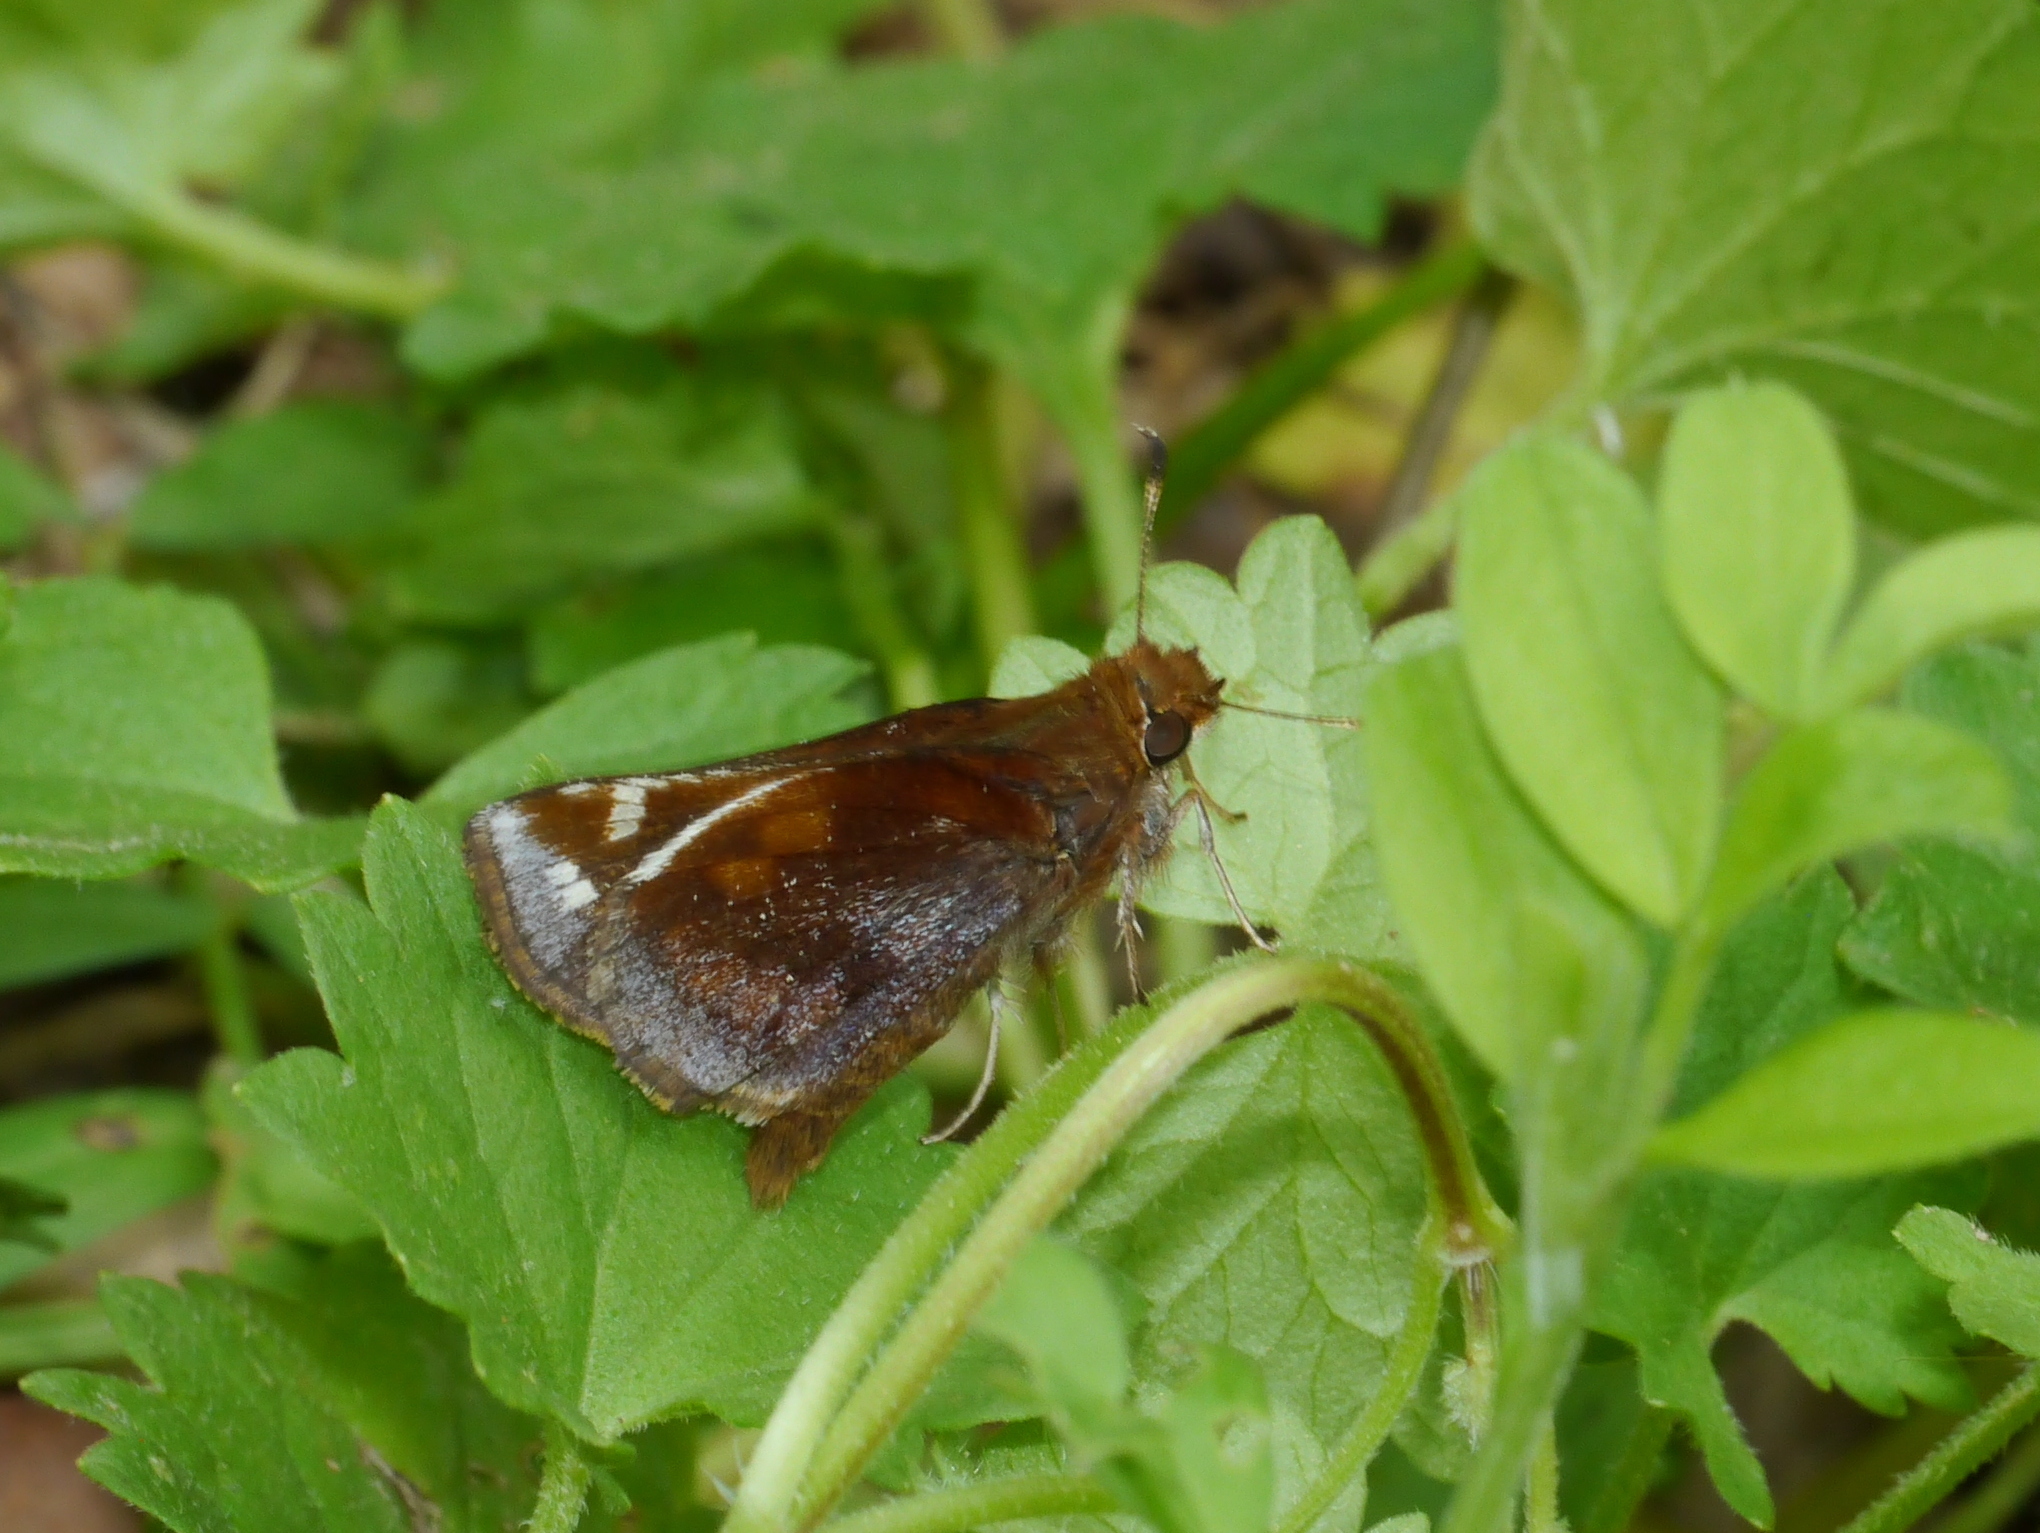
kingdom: Animalia
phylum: Arthropoda
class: Insecta
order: Lepidoptera
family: Hesperiidae
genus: Lon
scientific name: Lon zabulon
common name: Zabulon skipper
